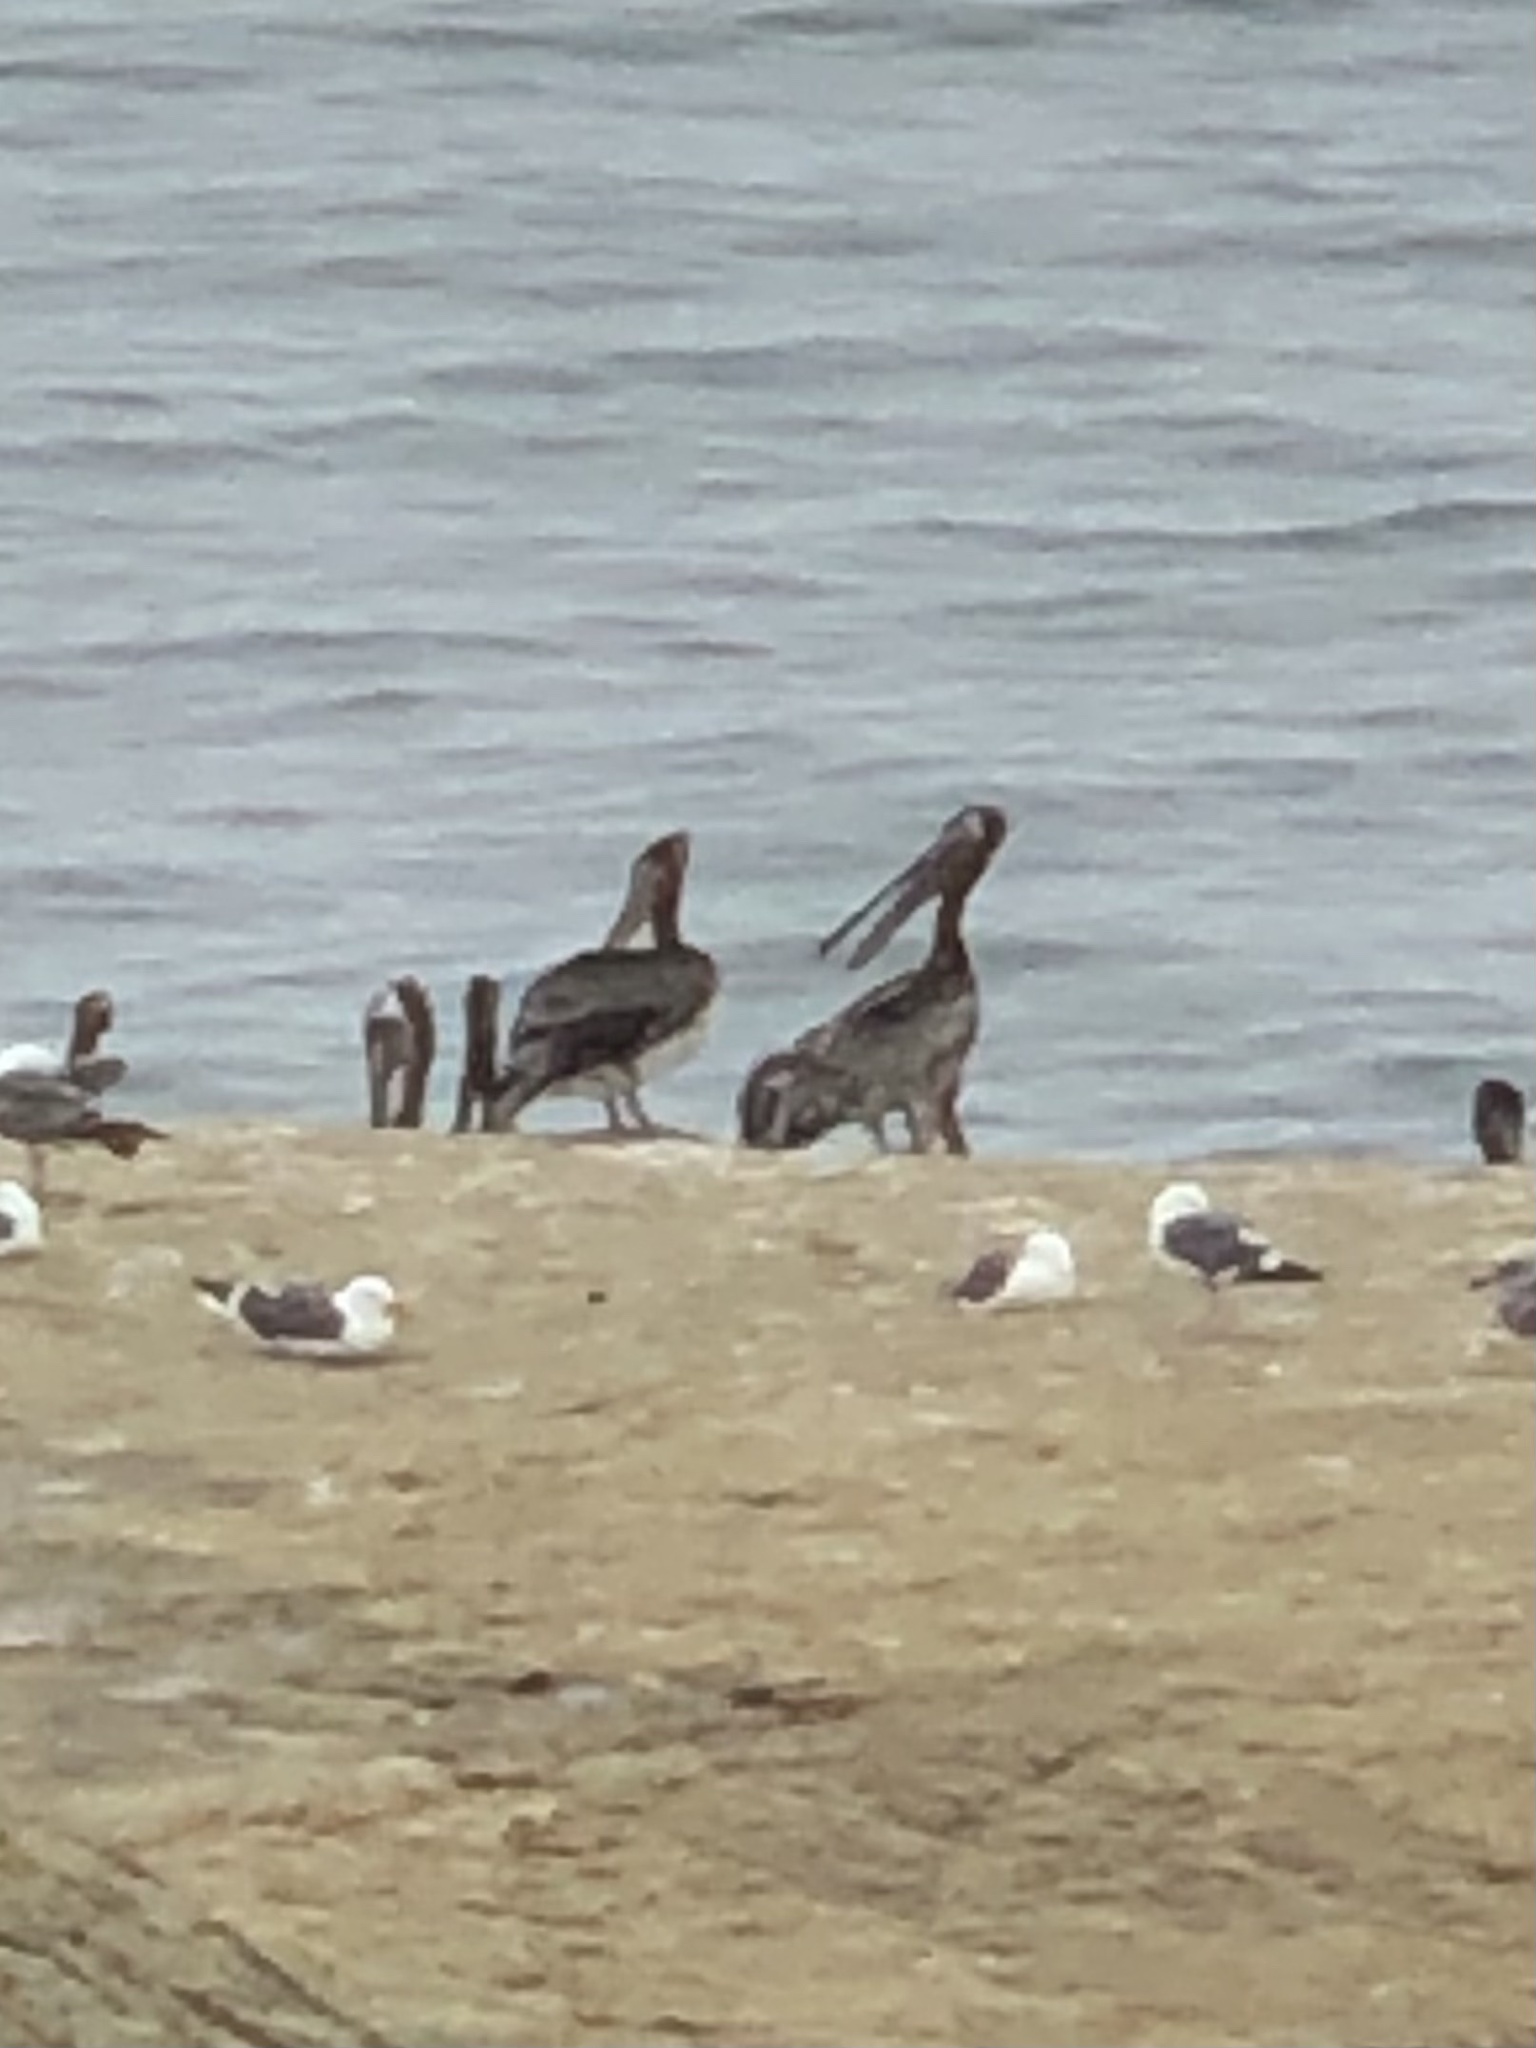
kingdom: Animalia
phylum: Chordata
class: Aves
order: Pelecaniformes
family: Pelecanidae
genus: Pelecanus
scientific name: Pelecanus occidentalis
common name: Brown pelican
